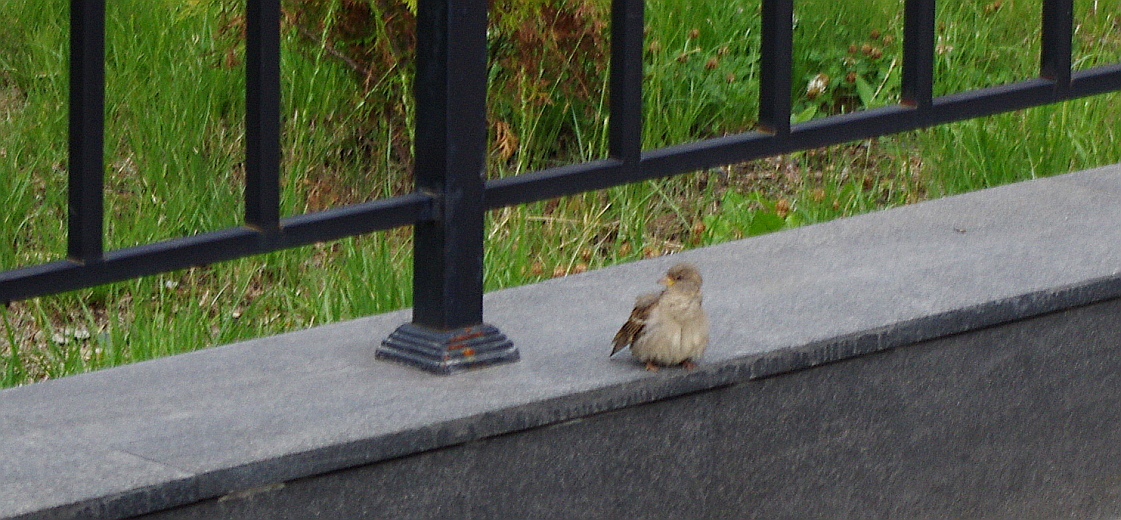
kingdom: Animalia
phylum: Chordata
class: Aves
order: Passeriformes
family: Passeridae
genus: Passer
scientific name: Passer domesticus
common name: House sparrow
